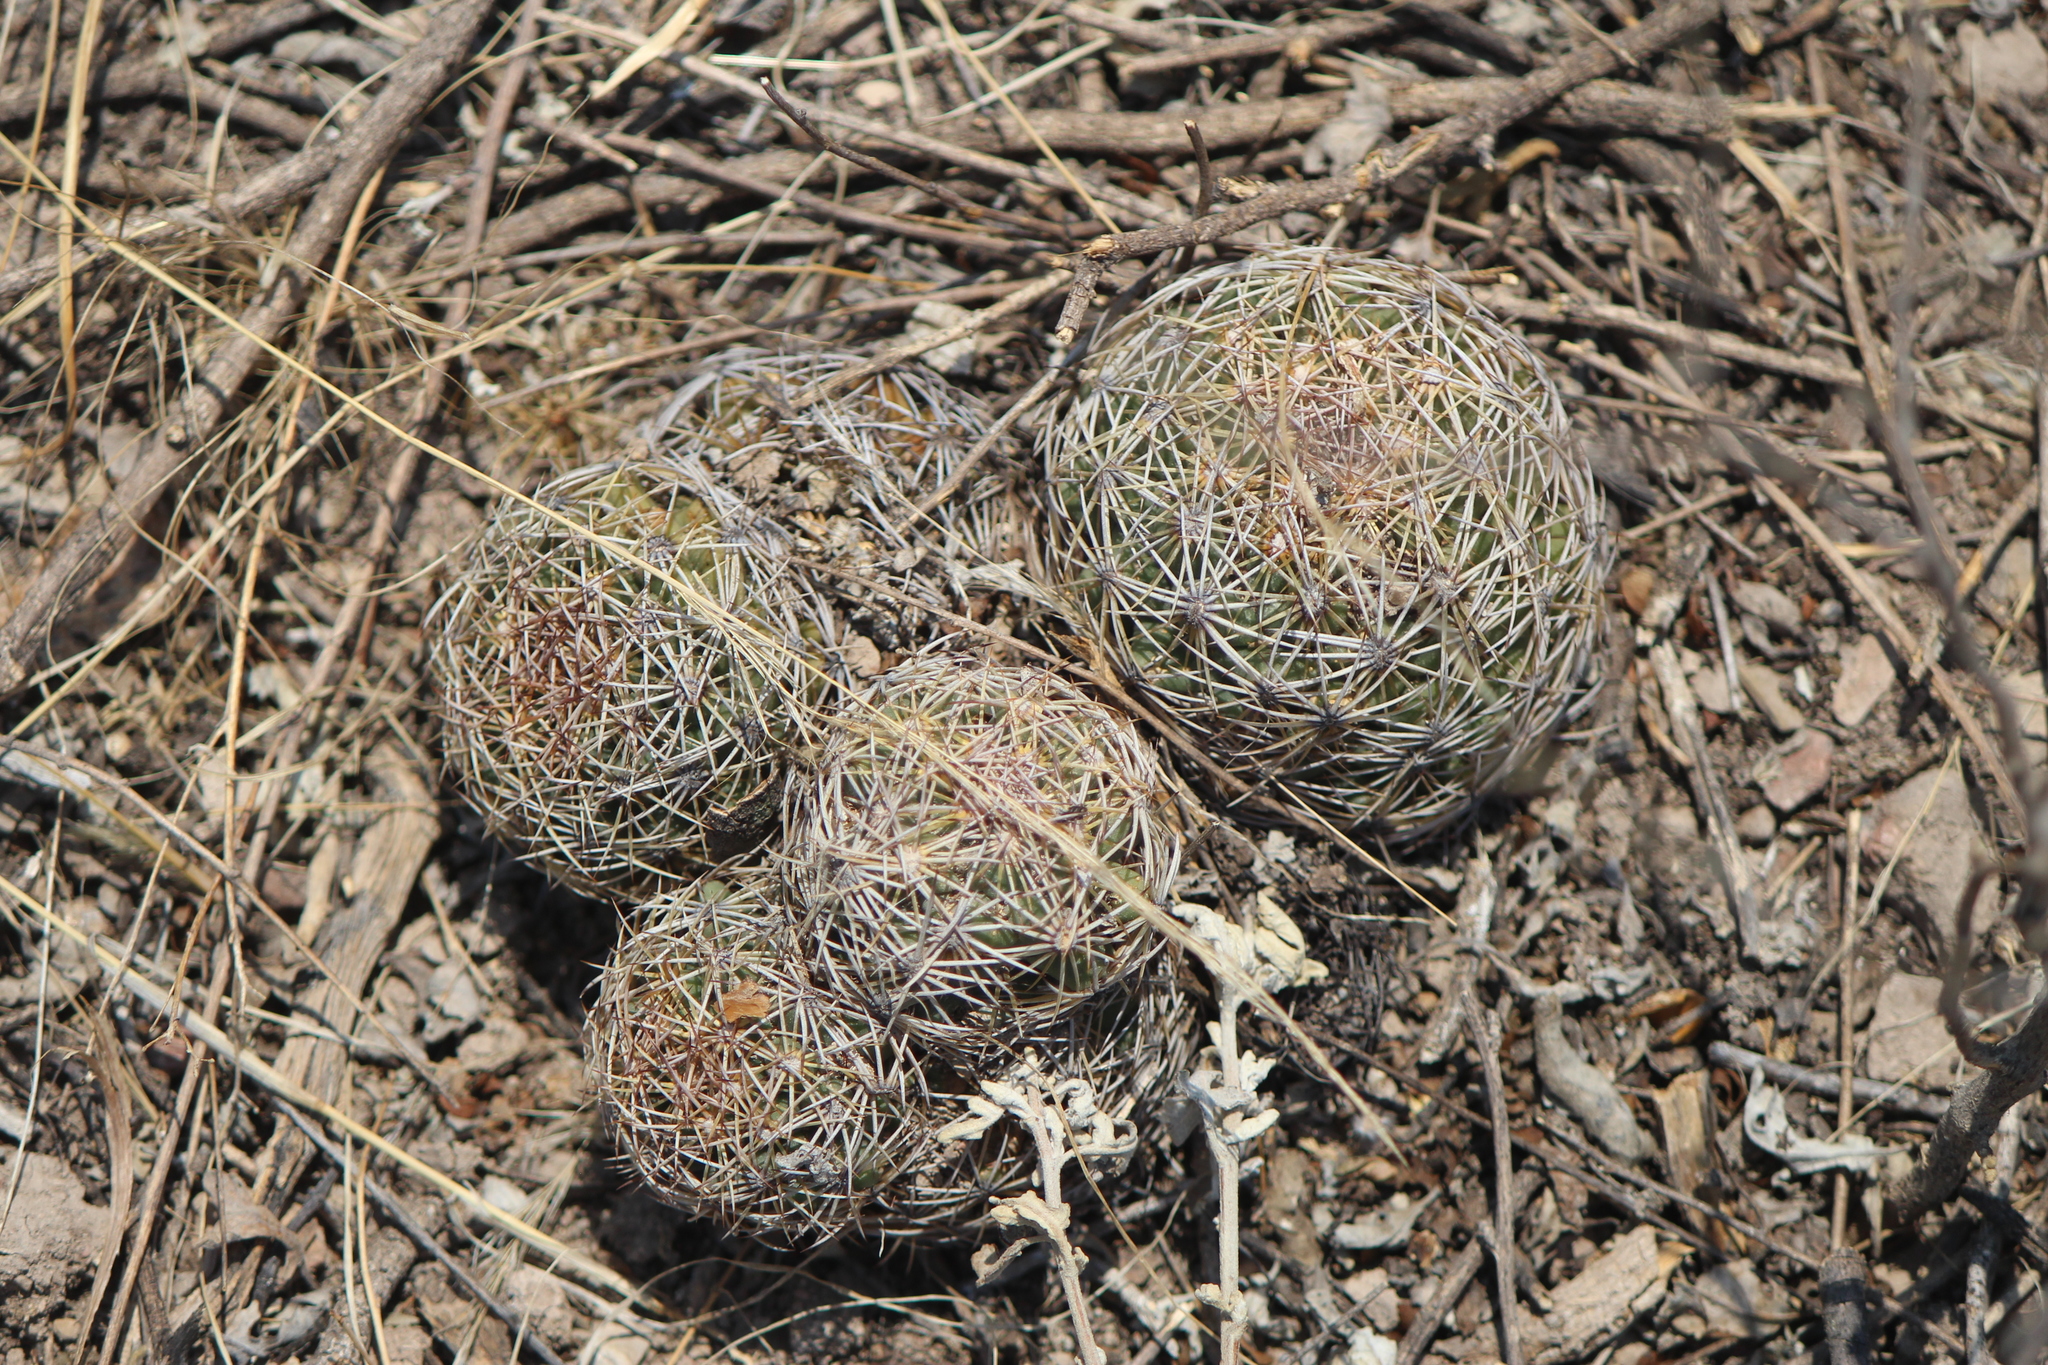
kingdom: Plantae
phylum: Tracheophyta
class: Magnoliopsida
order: Caryophyllales
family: Cactaceae
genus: Coryphantha
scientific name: Coryphantha cornifera
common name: Rhinoceros cactus
